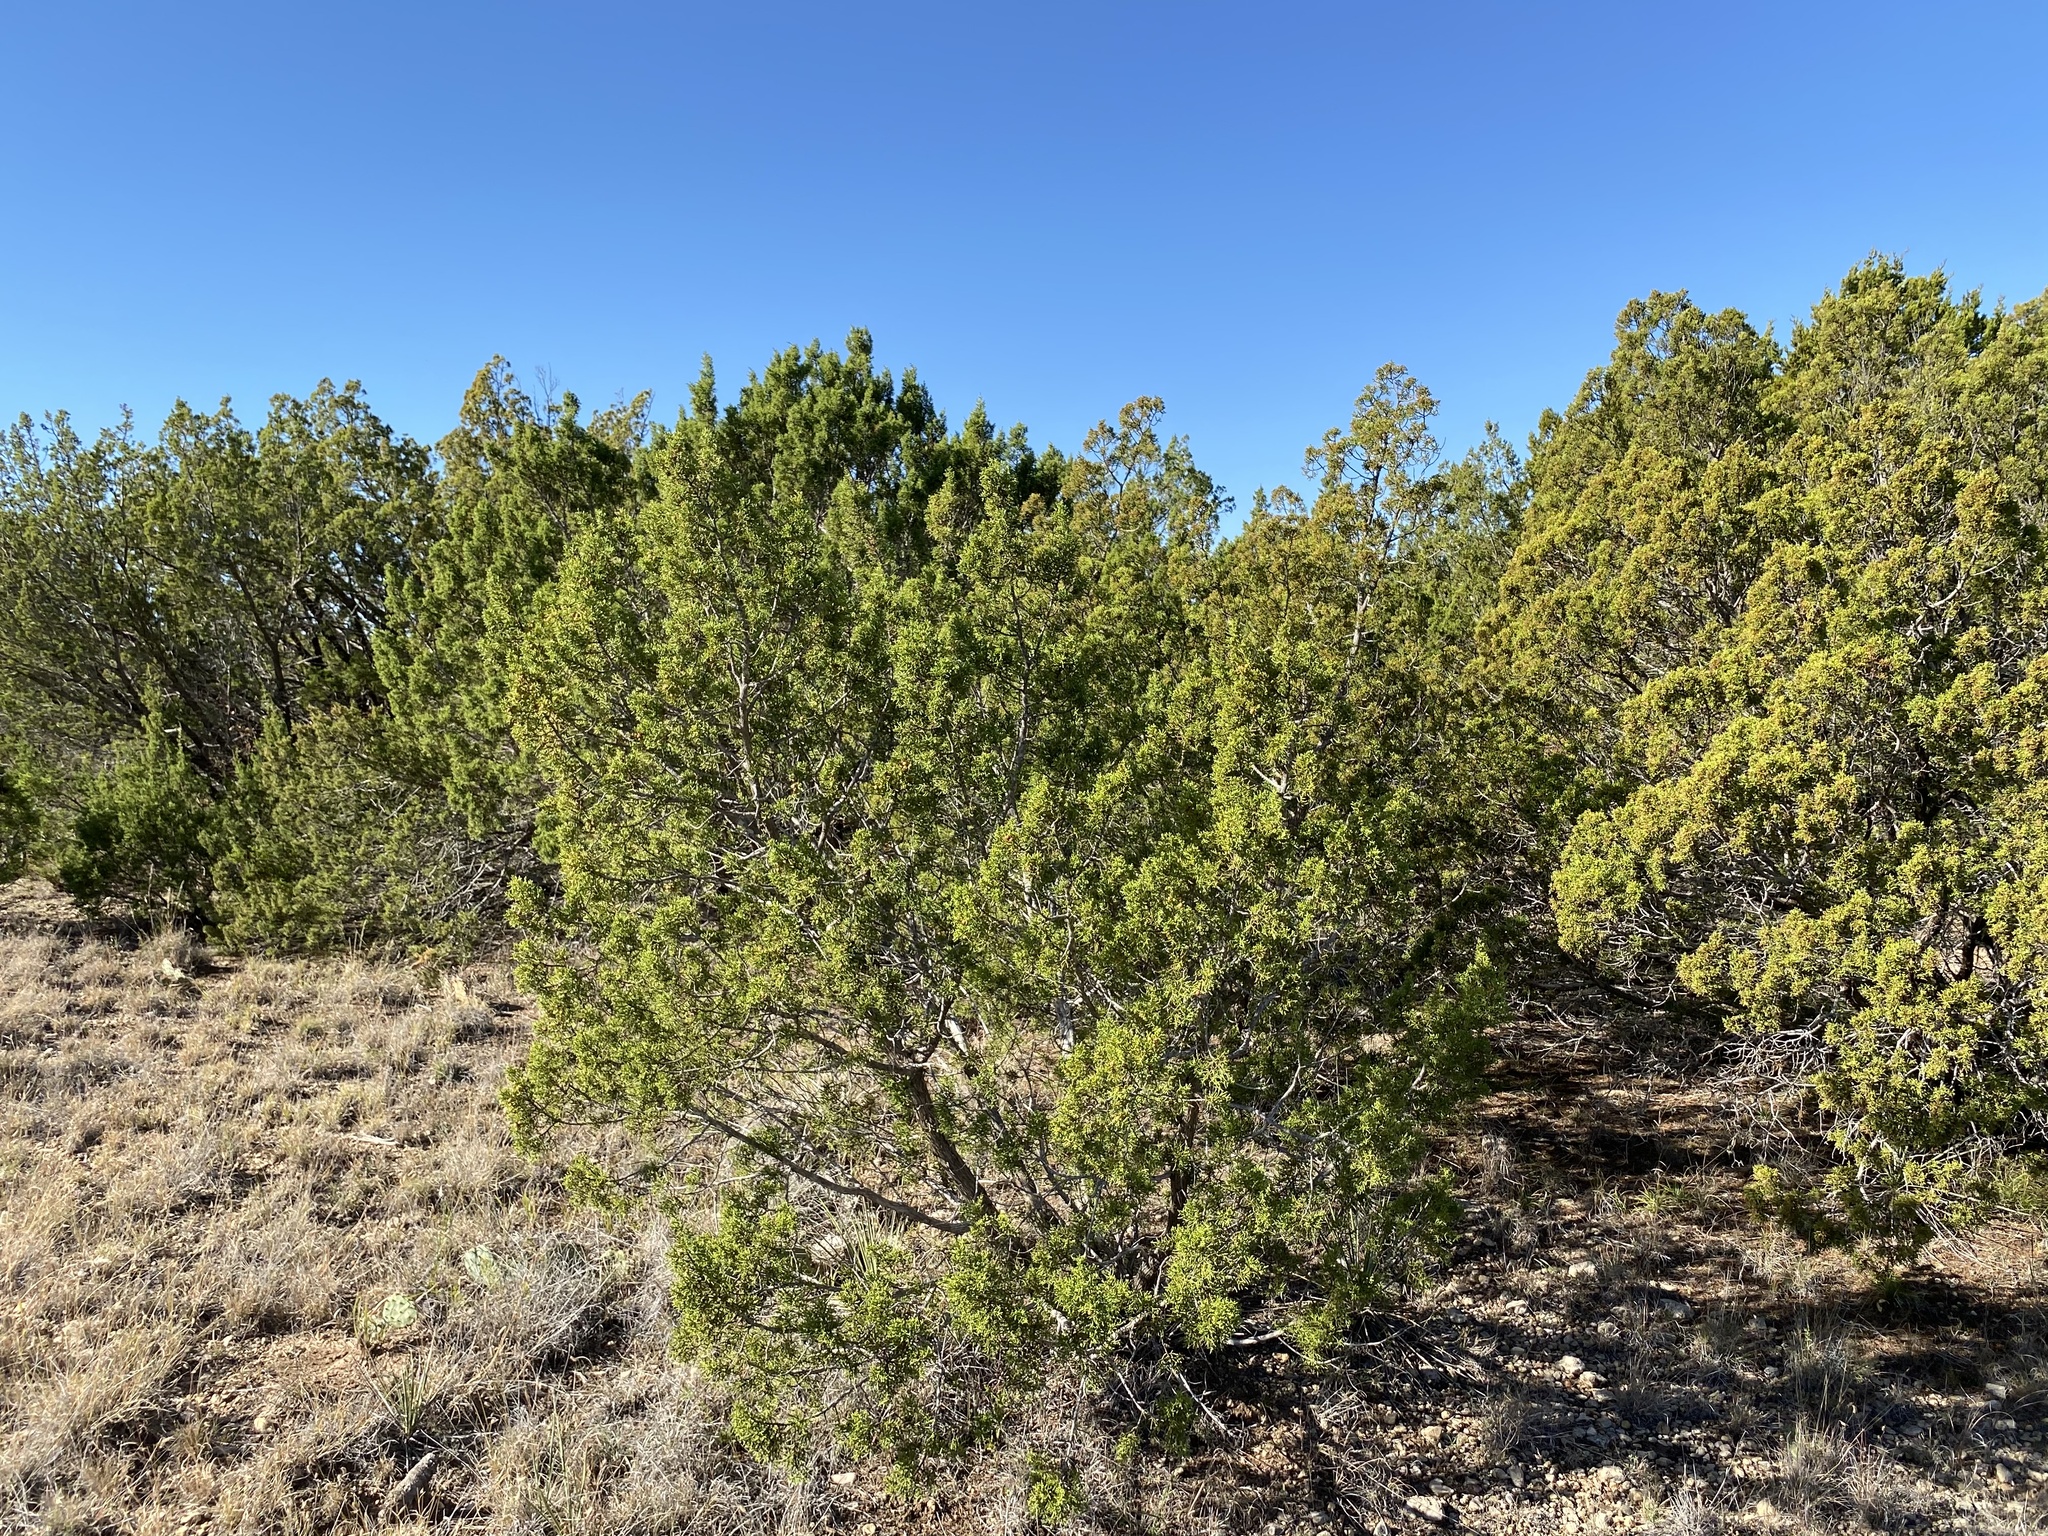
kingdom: Plantae
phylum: Tracheophyta
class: Pinopsida
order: Pinales
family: Cupressaceae
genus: Juniperus
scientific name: Juniperus pinchotii
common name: Pinchot juniper
